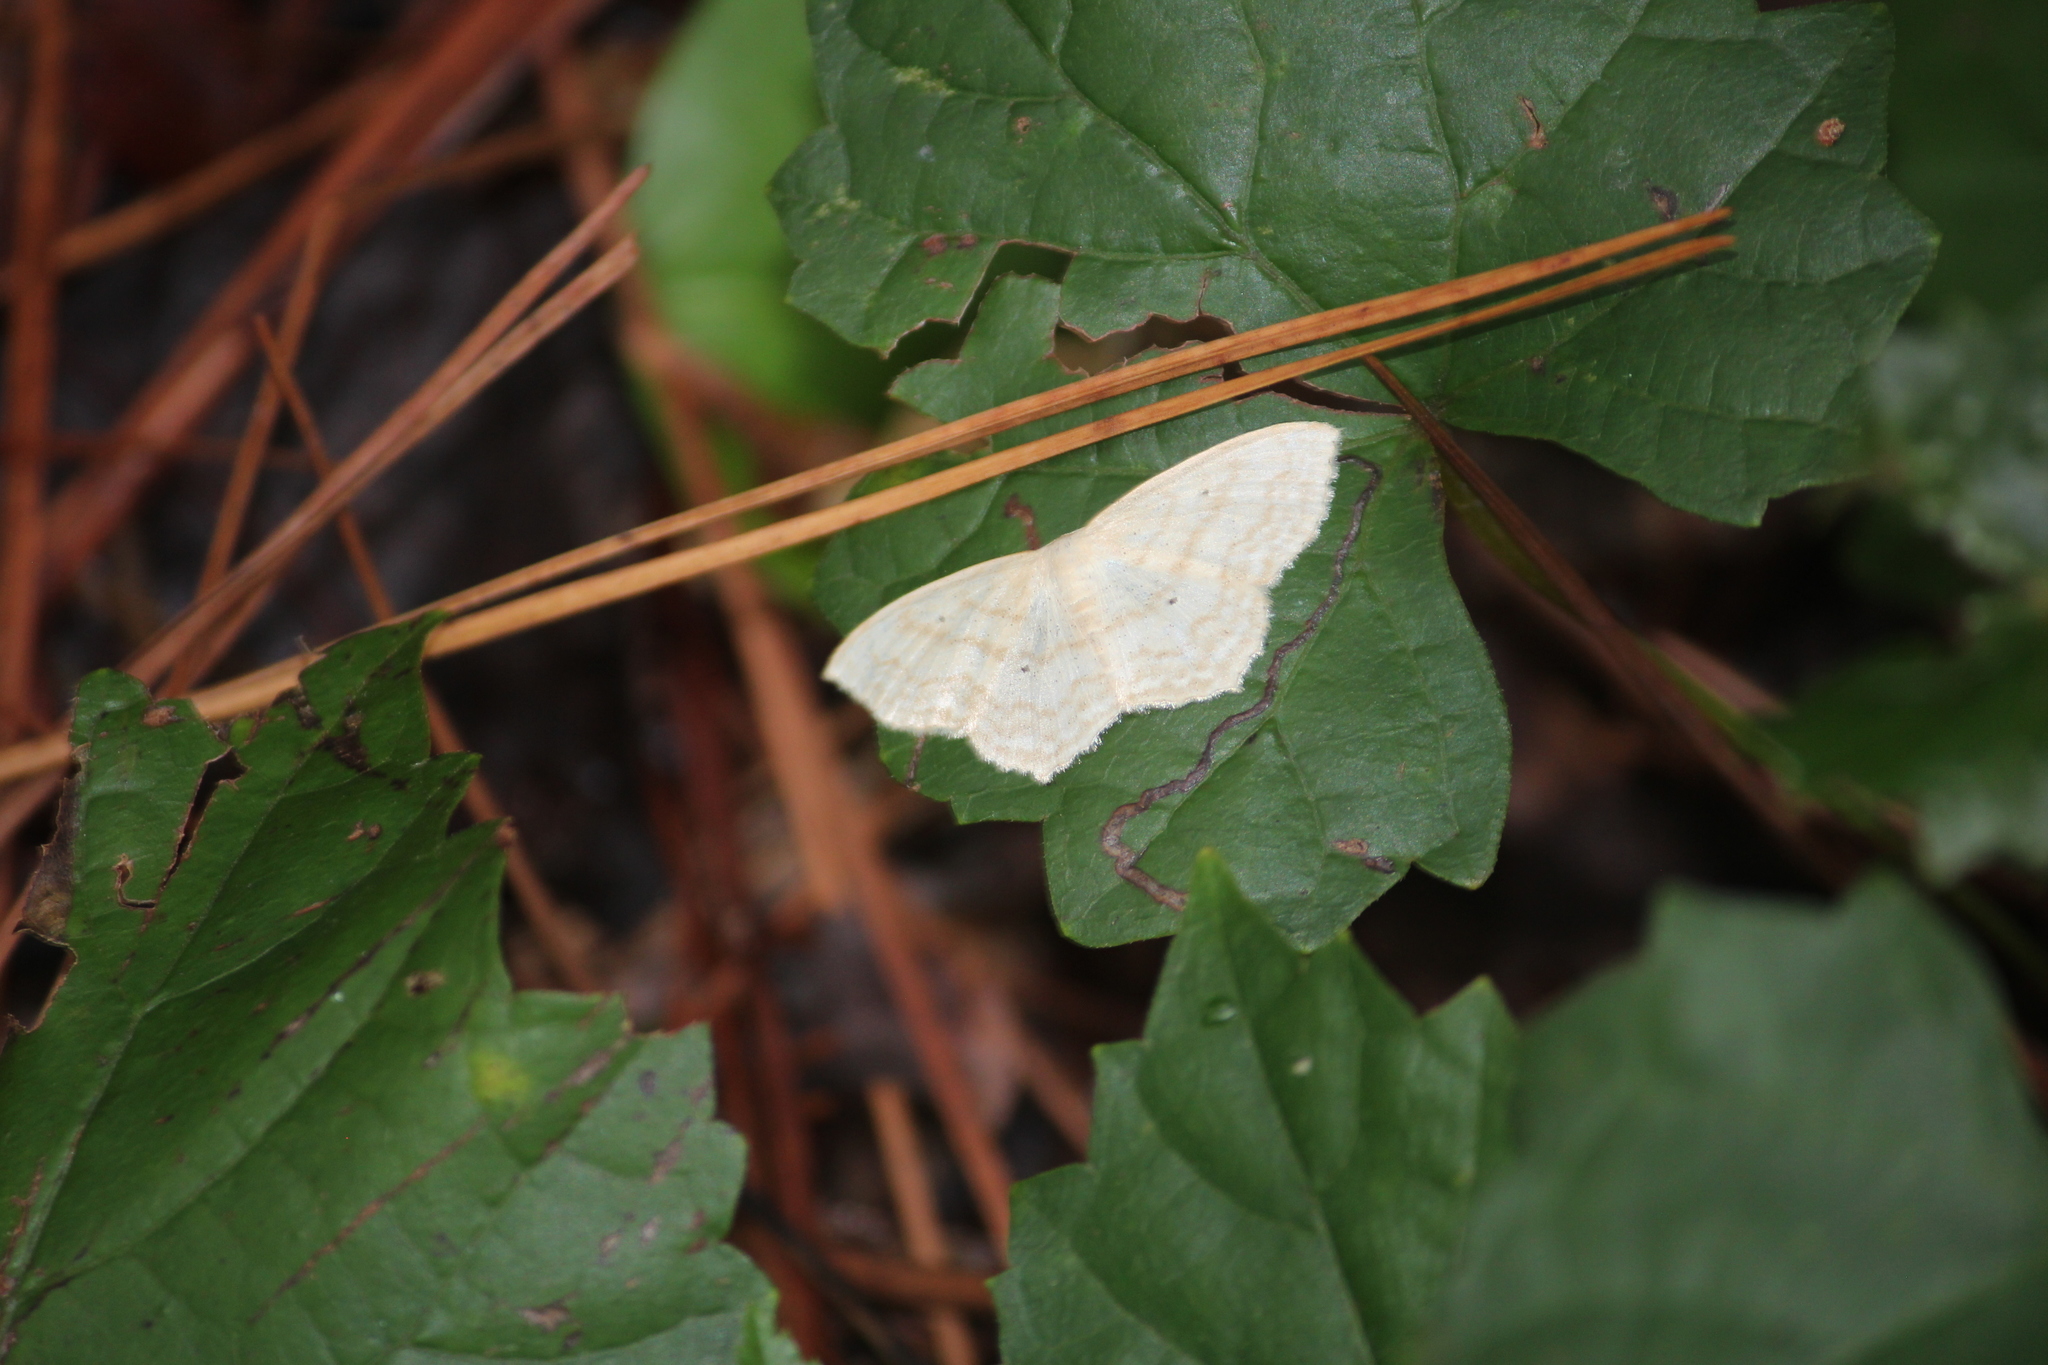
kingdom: Animalia
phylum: Arthropoda
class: Insecta
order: Lepidoptera
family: Geometridae
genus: Scopula
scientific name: Scopula limboundata
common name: Large lace border
